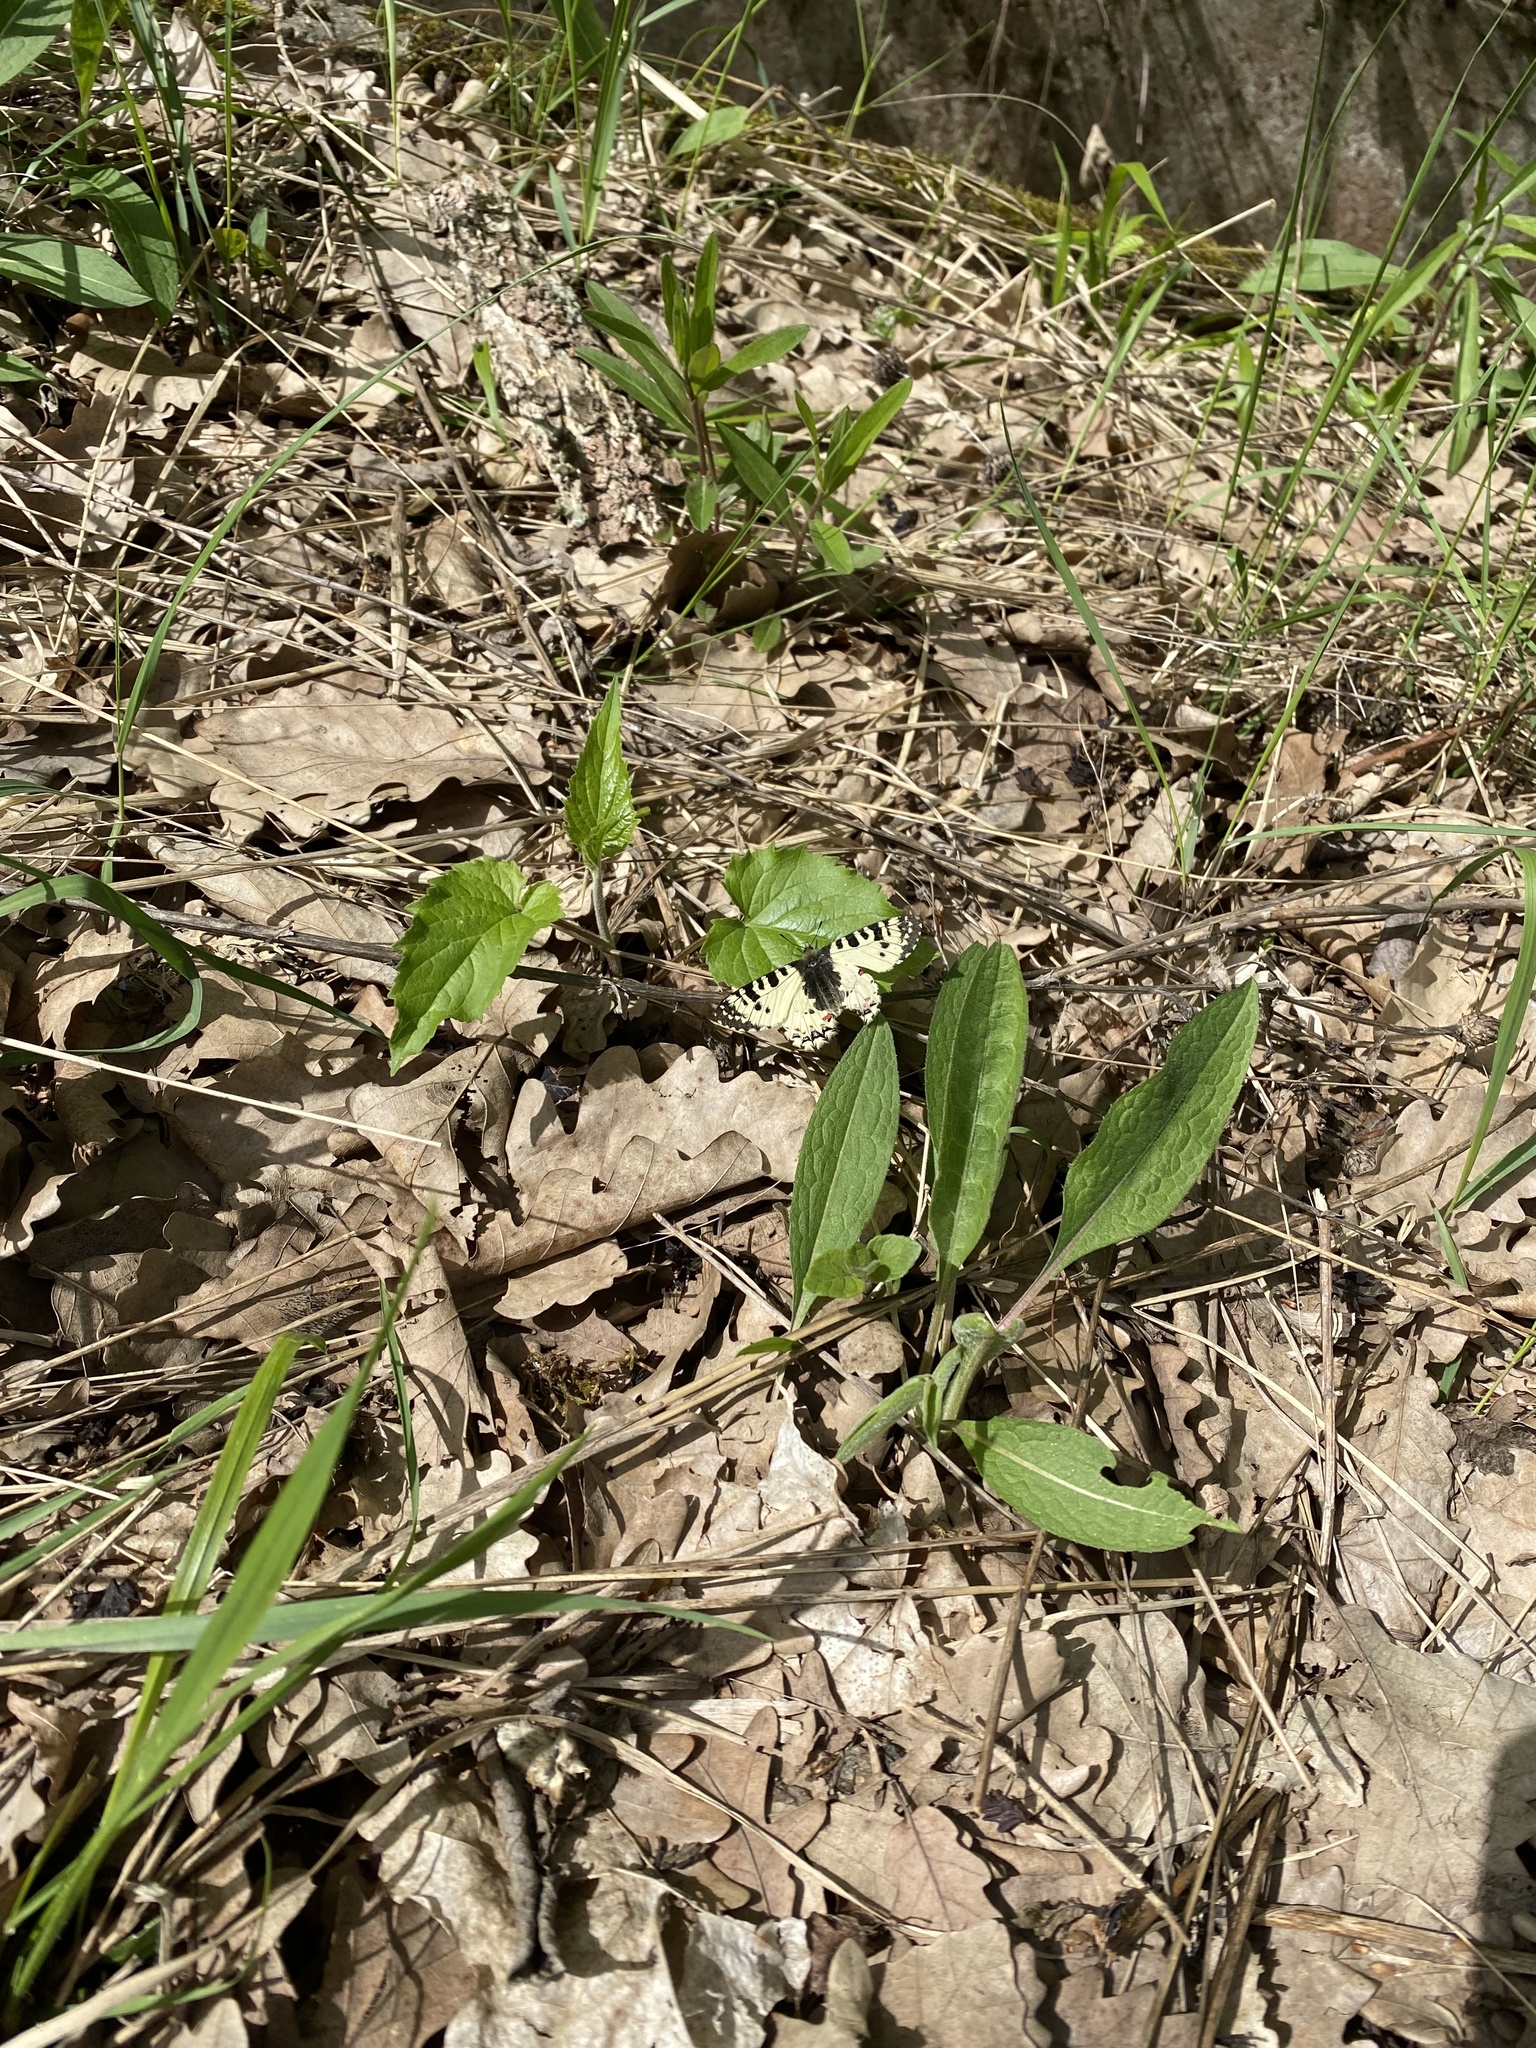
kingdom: Animalia
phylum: Arthropoda
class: Insecta
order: Lepidoptera
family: Papilionidae
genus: Zerynthia
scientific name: Zerynthia caucasica
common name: Caucasian festoon
